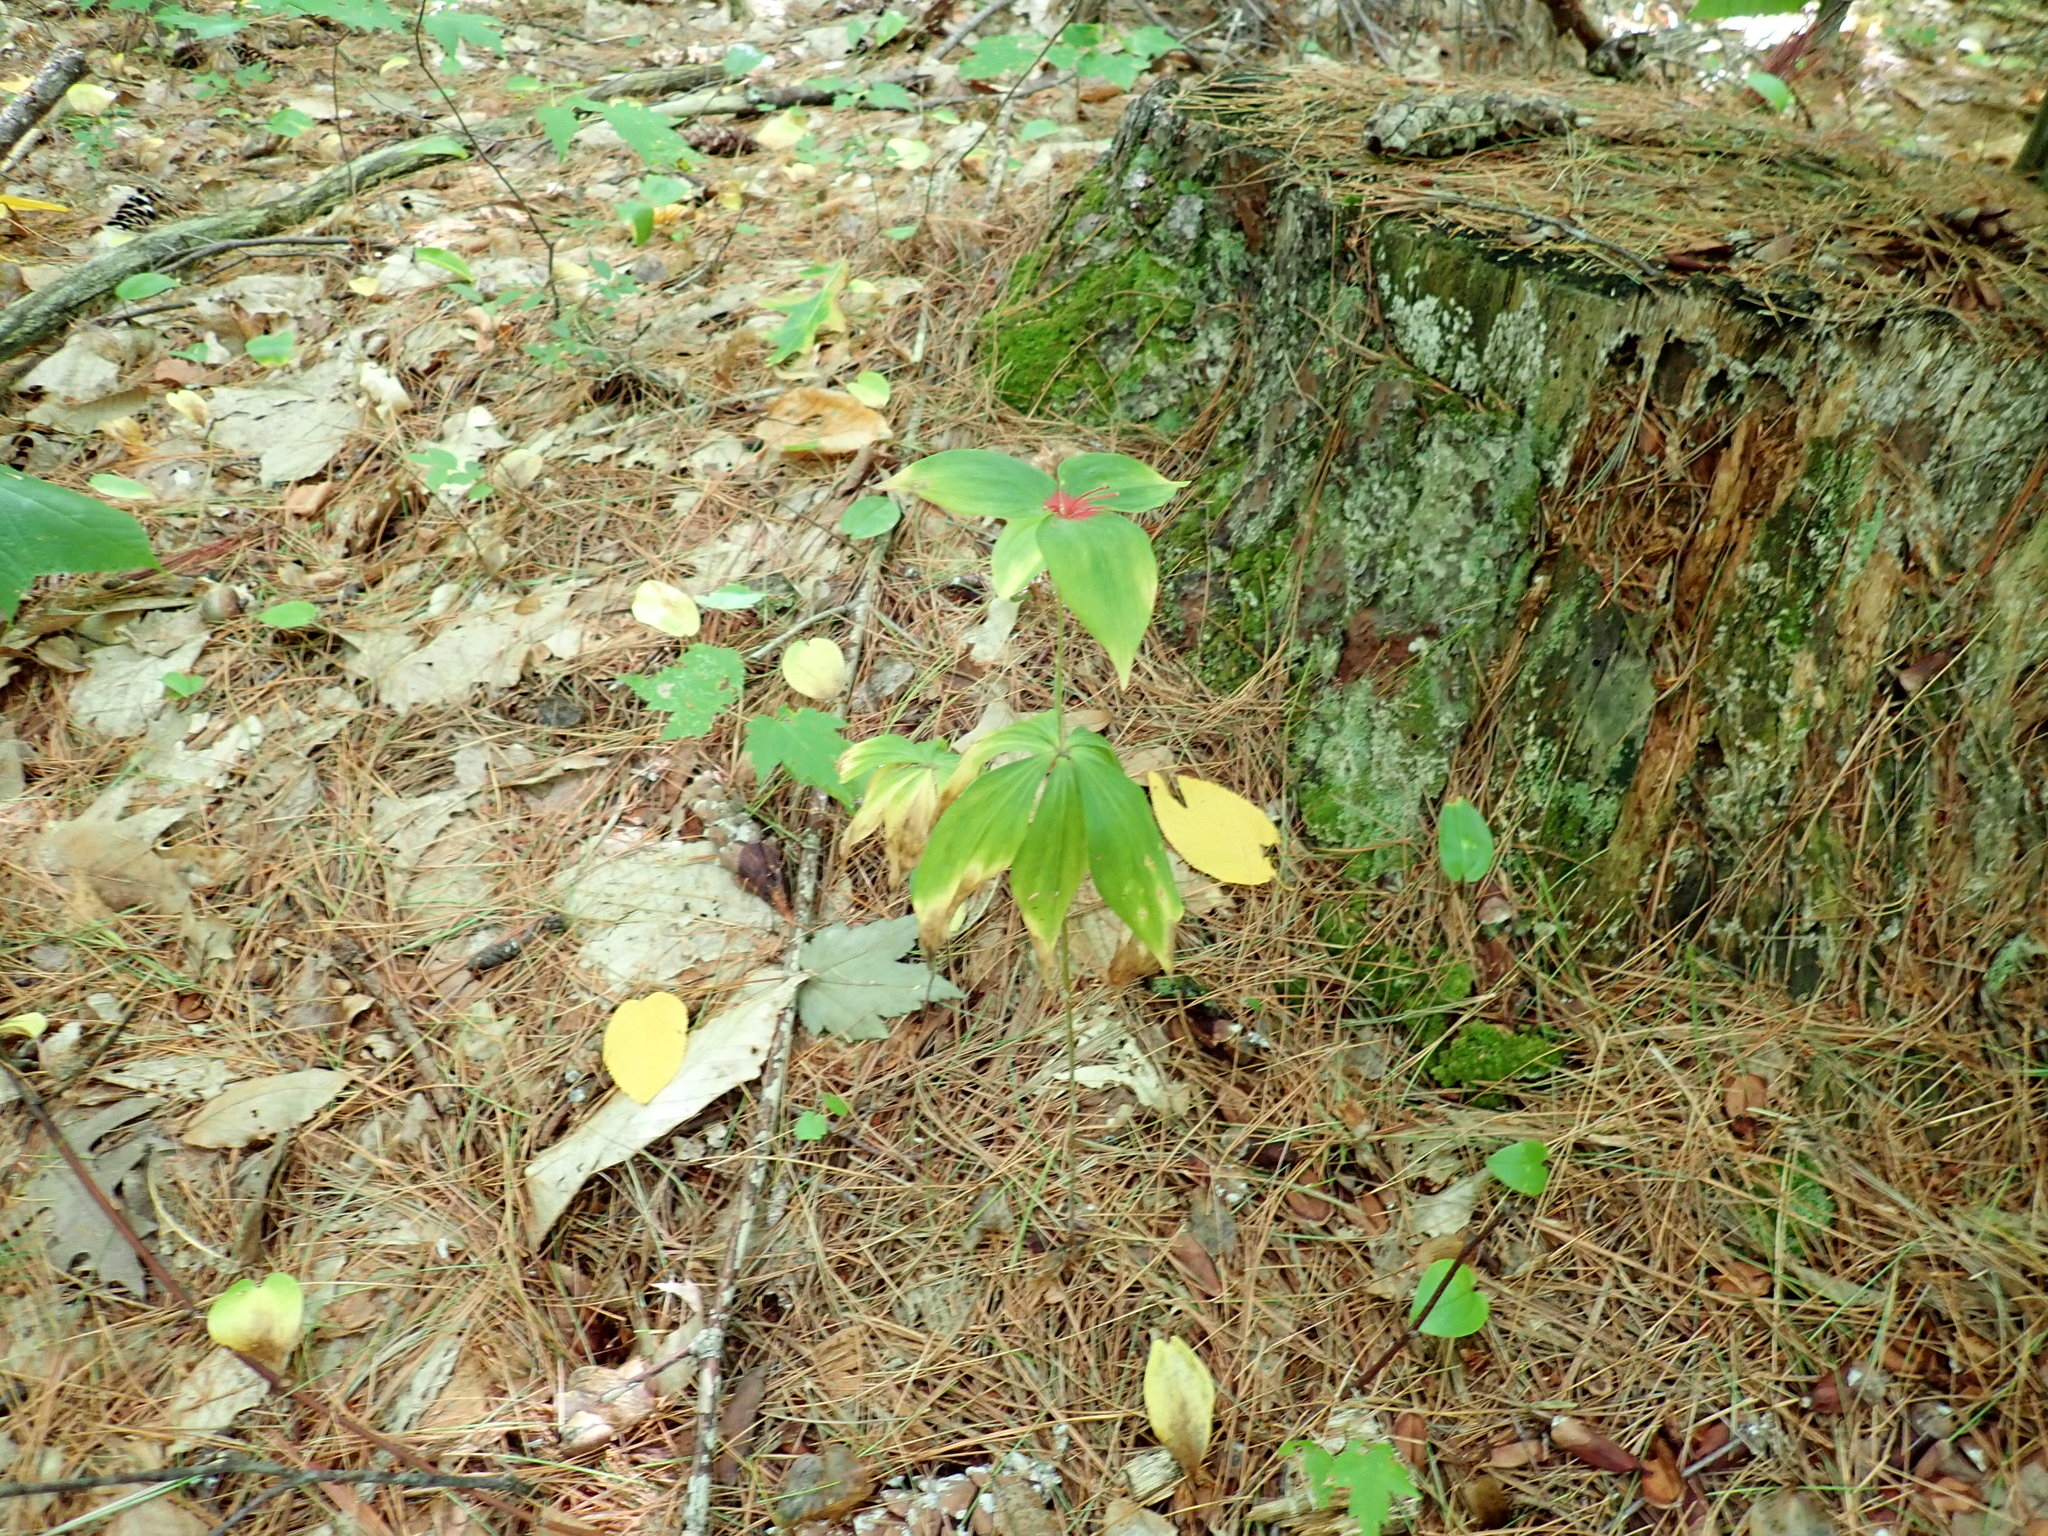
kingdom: Plantae
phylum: Tracheophyta
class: Liliopsida
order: Liliales
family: Liliaceae
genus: Medeola
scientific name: Medeola virginiana
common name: Indian cucumber-root
